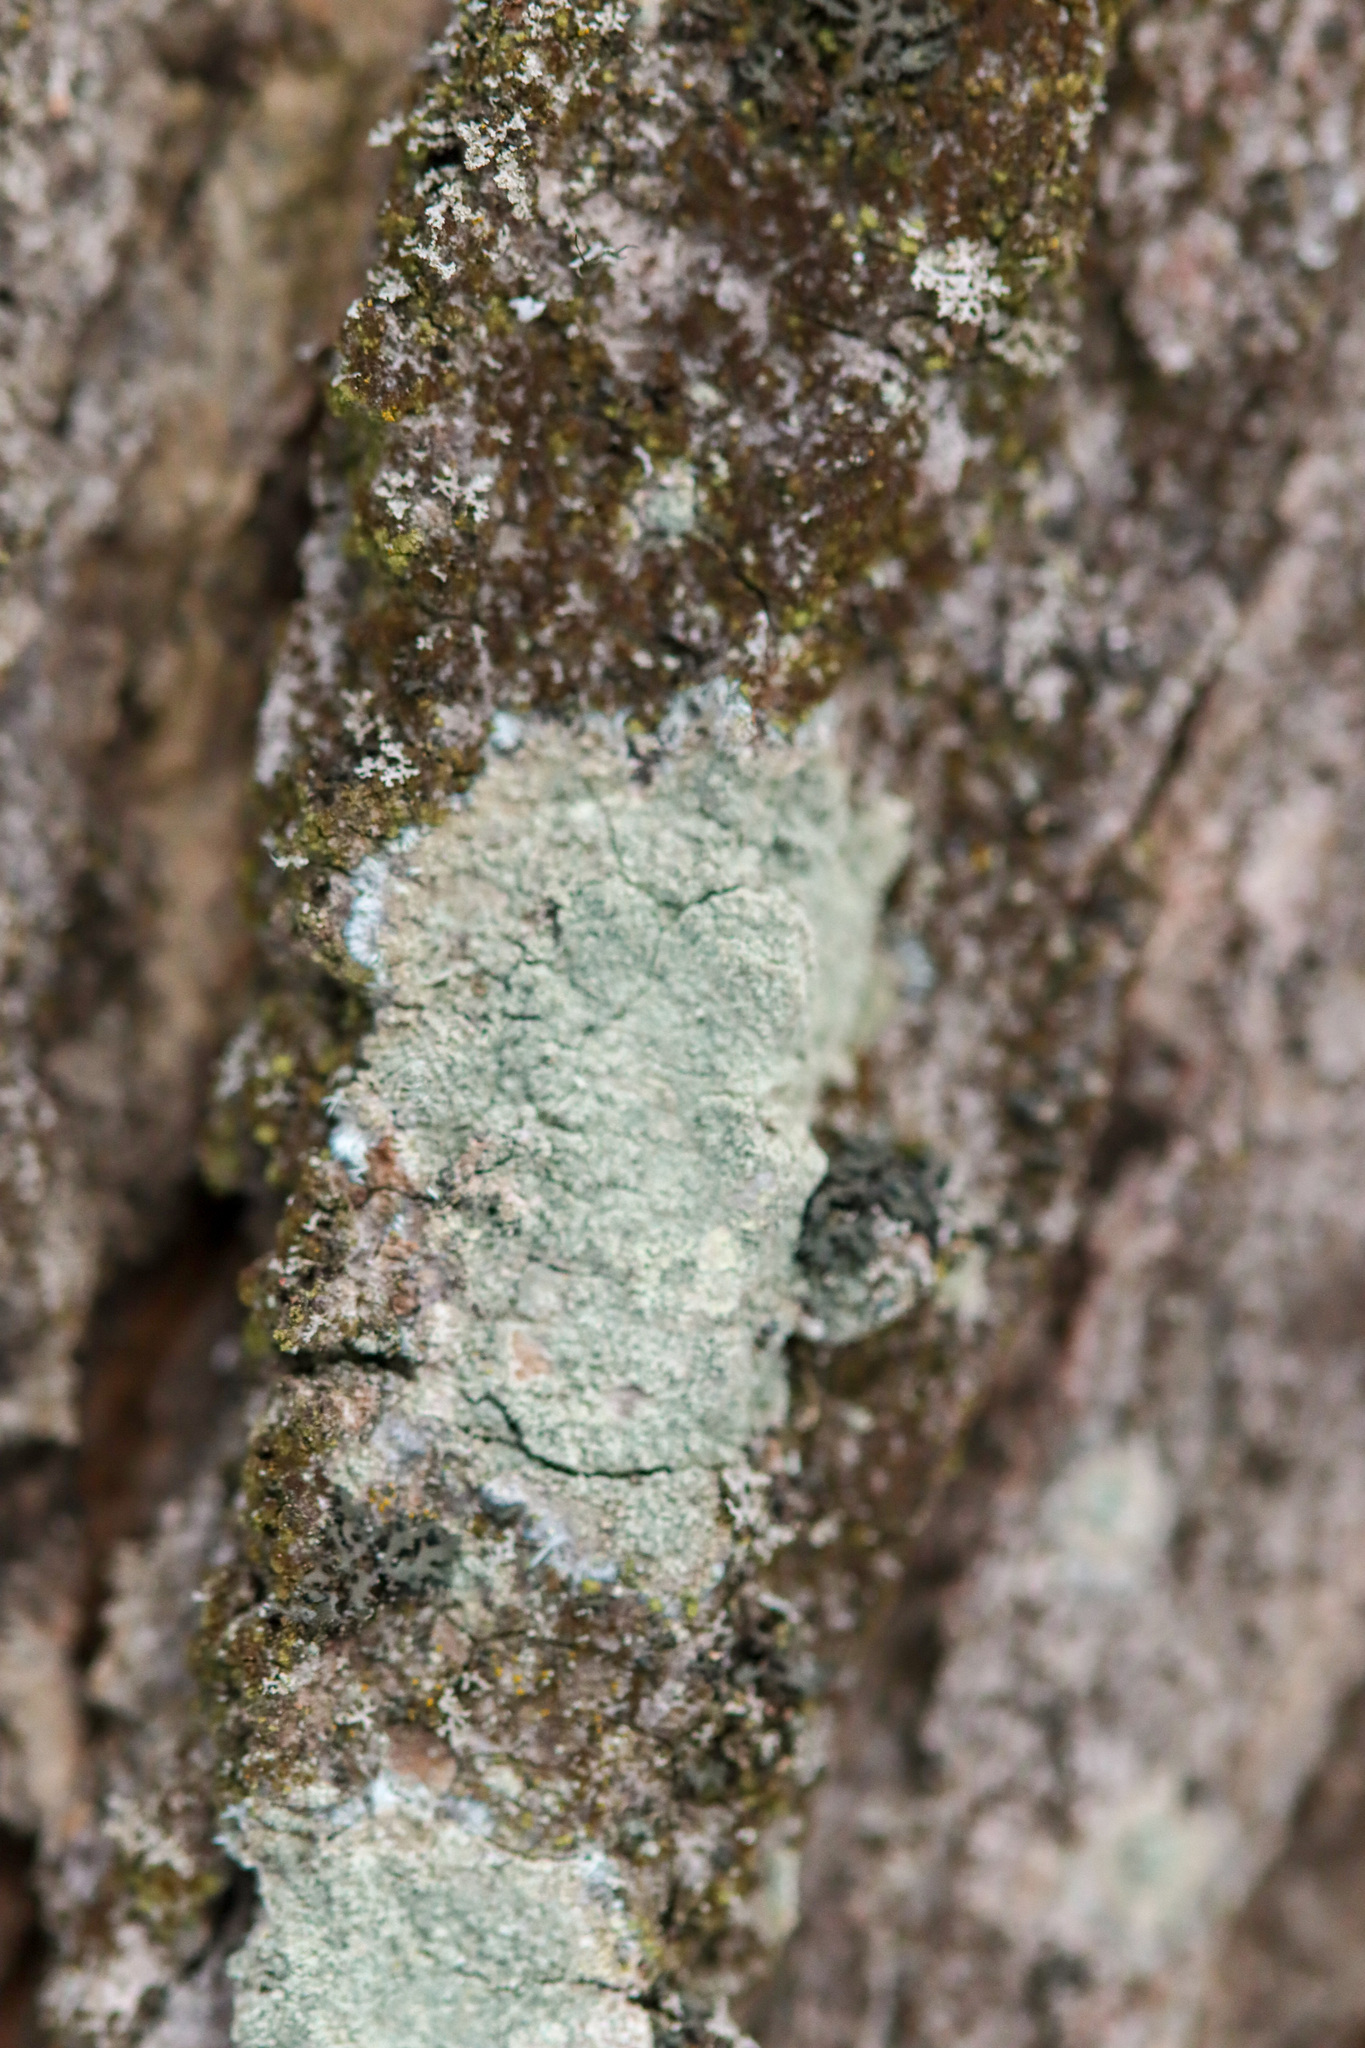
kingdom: Fungi
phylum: Ascomycota
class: Lecanoromycetes
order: Pertusariales
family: Pertusariaceae
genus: Verseghya
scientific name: Verseghya thysanophora
